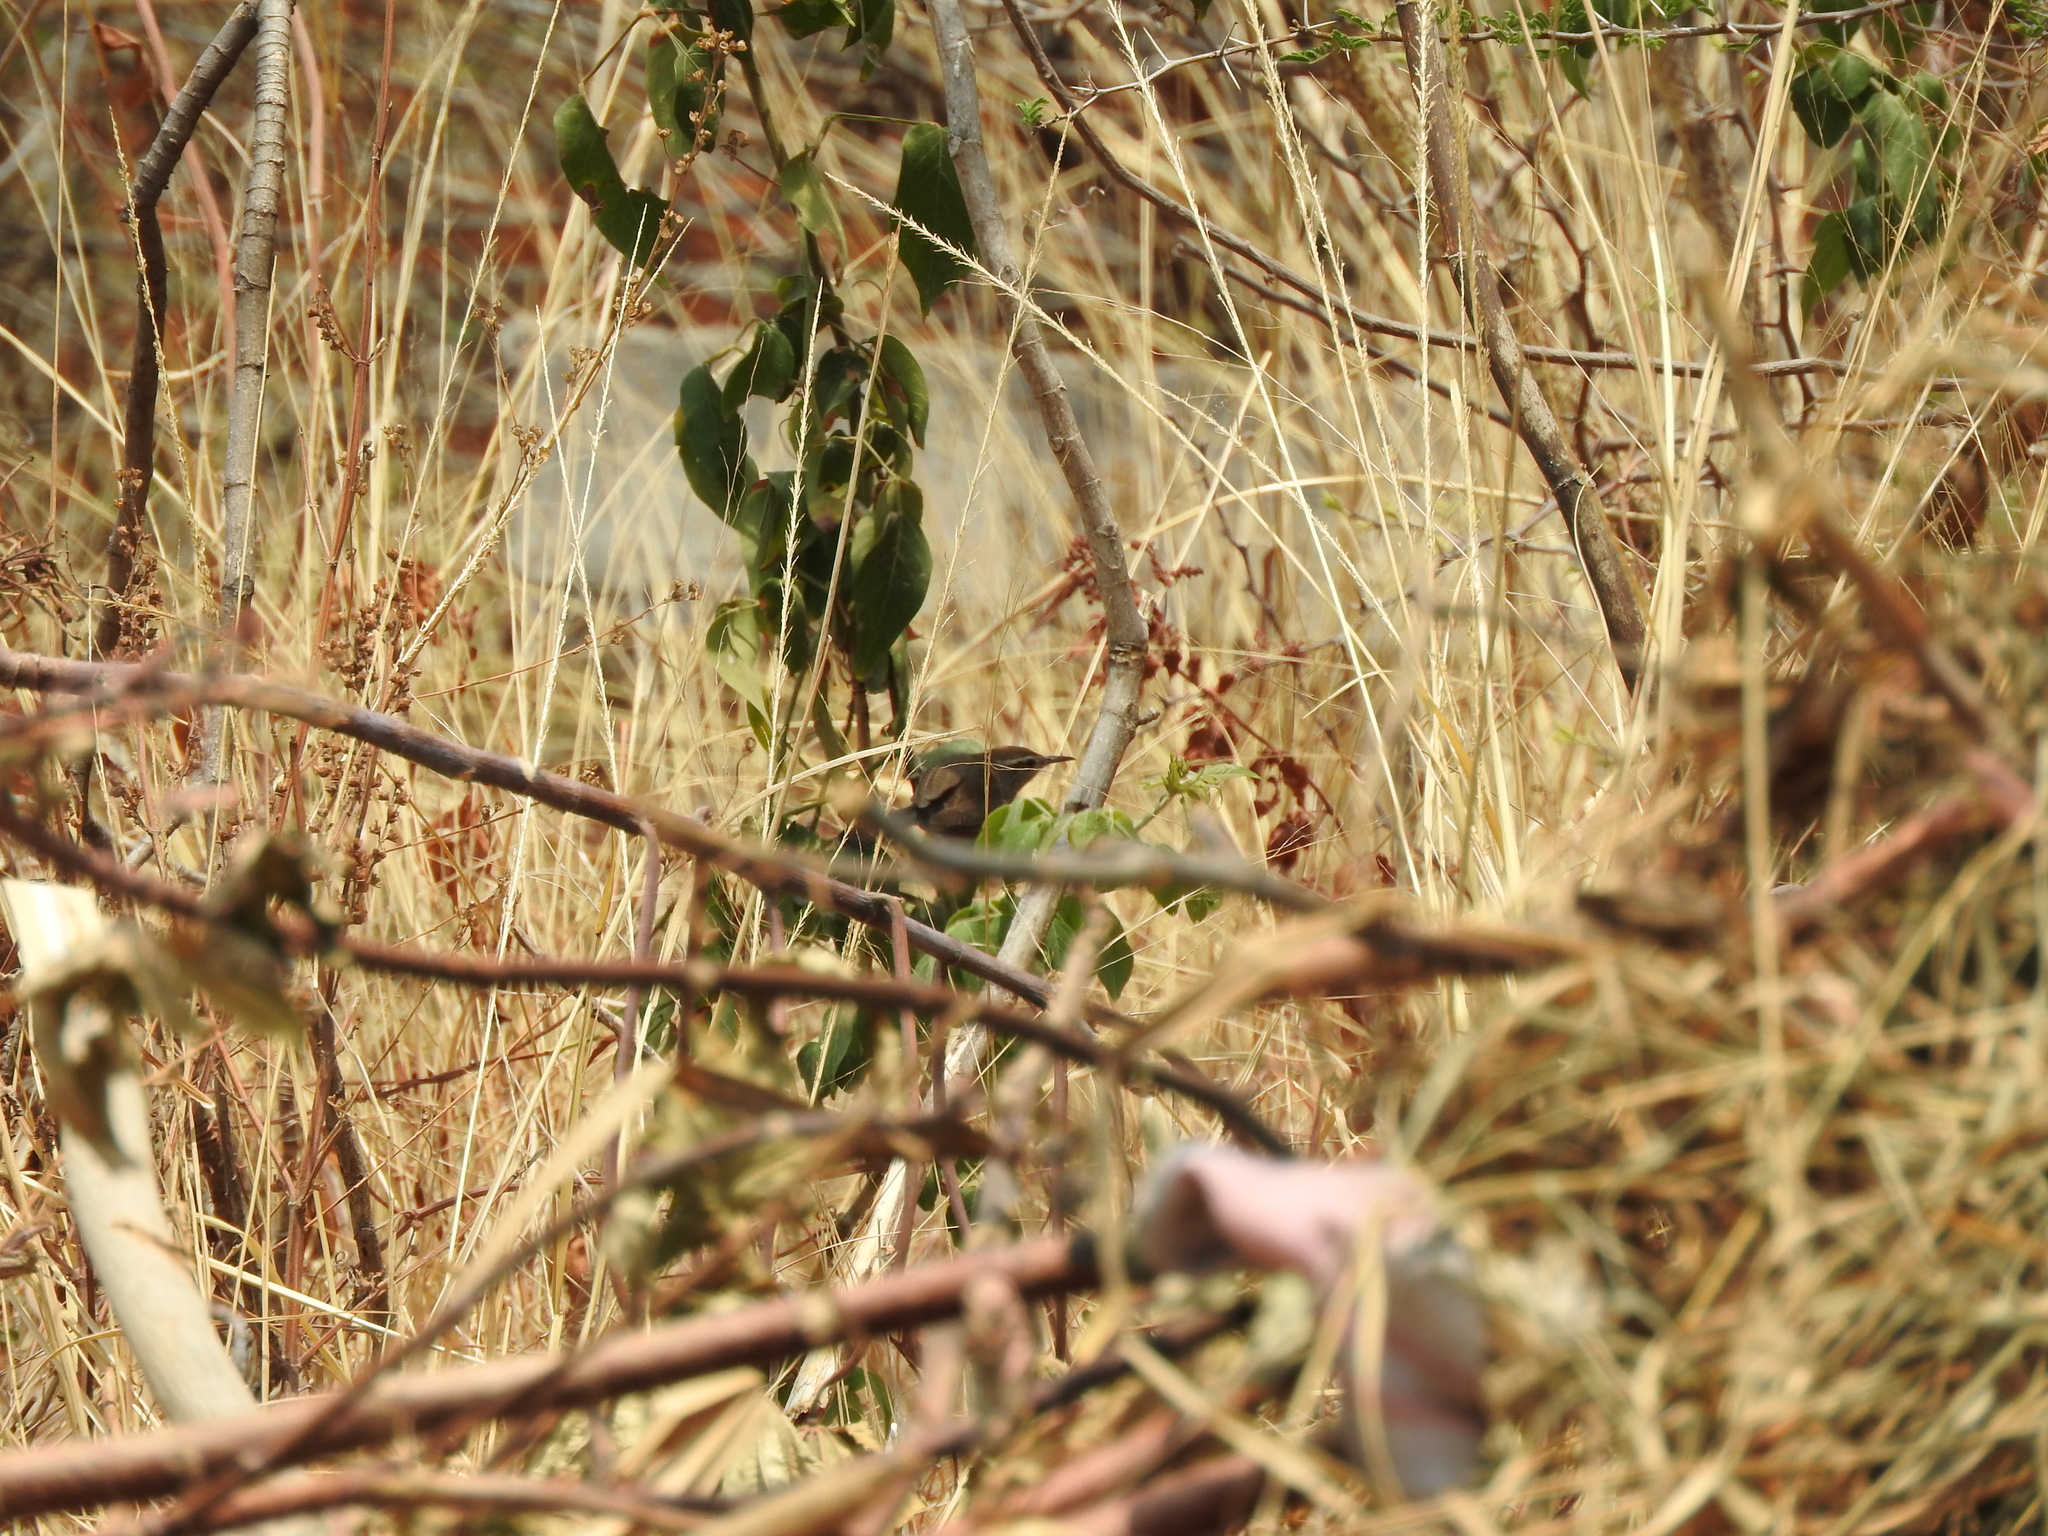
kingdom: Animalia
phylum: Chordata
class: Aves
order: Passeriformes
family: Troglodytidae
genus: Thryomanes
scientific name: Thryomanes bewickii
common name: Bewick's wren
